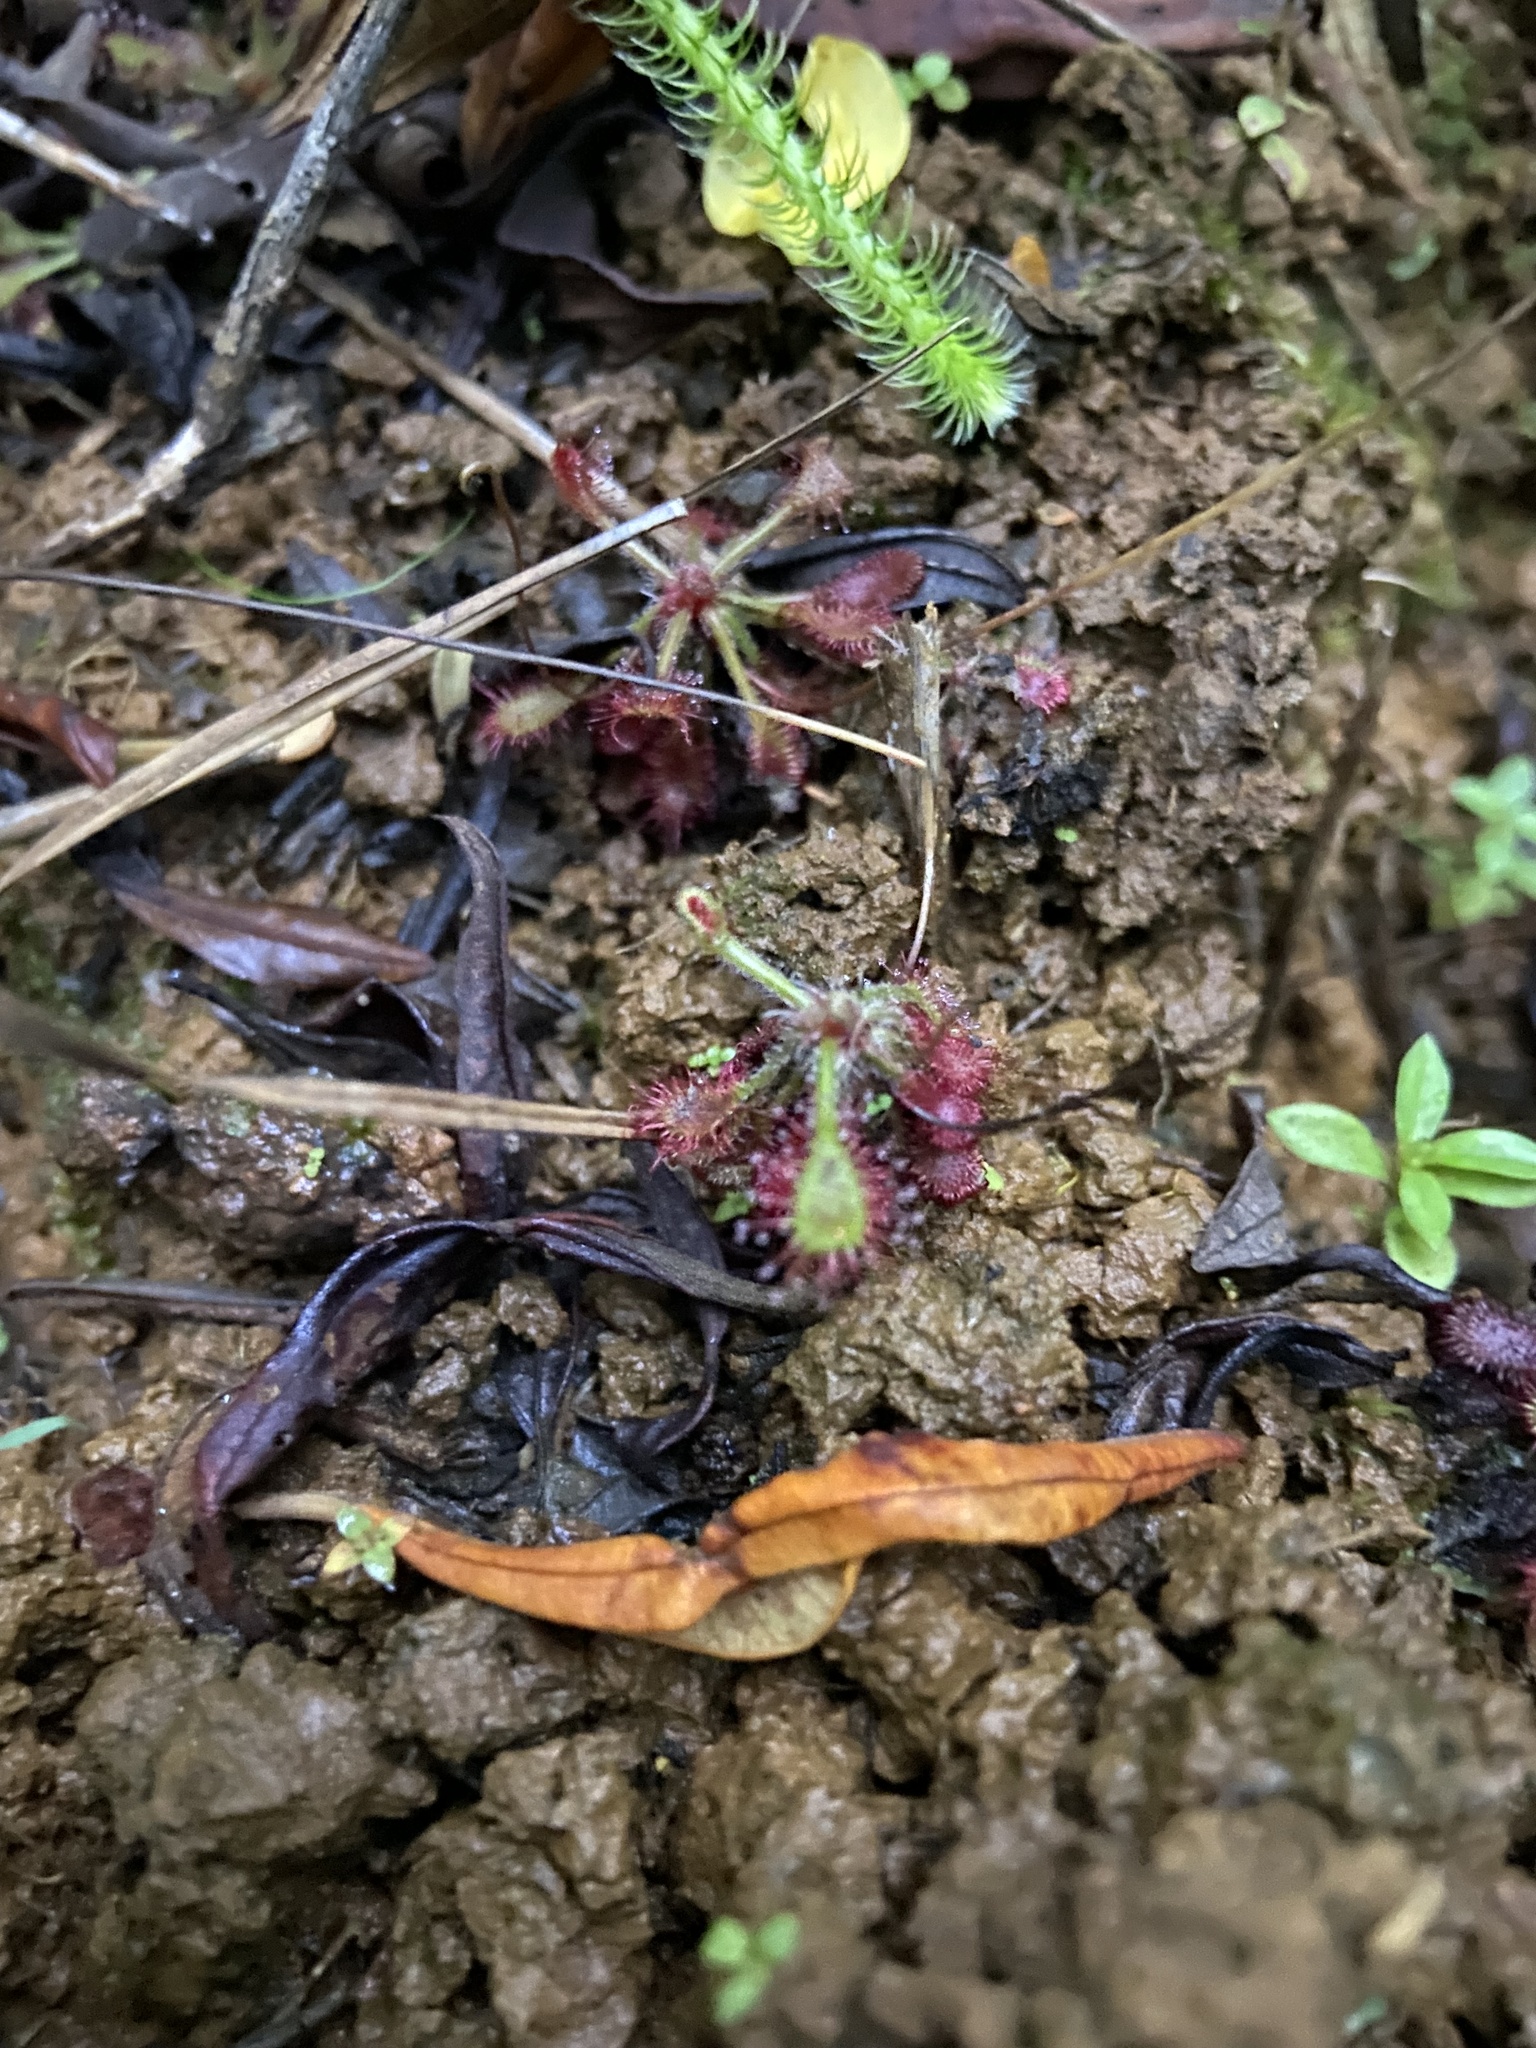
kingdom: Plantae
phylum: Tracheophyta
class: Magnoliopsida
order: Caryophyllales
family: Droseraceae
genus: Drosera
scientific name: Drosera communis
